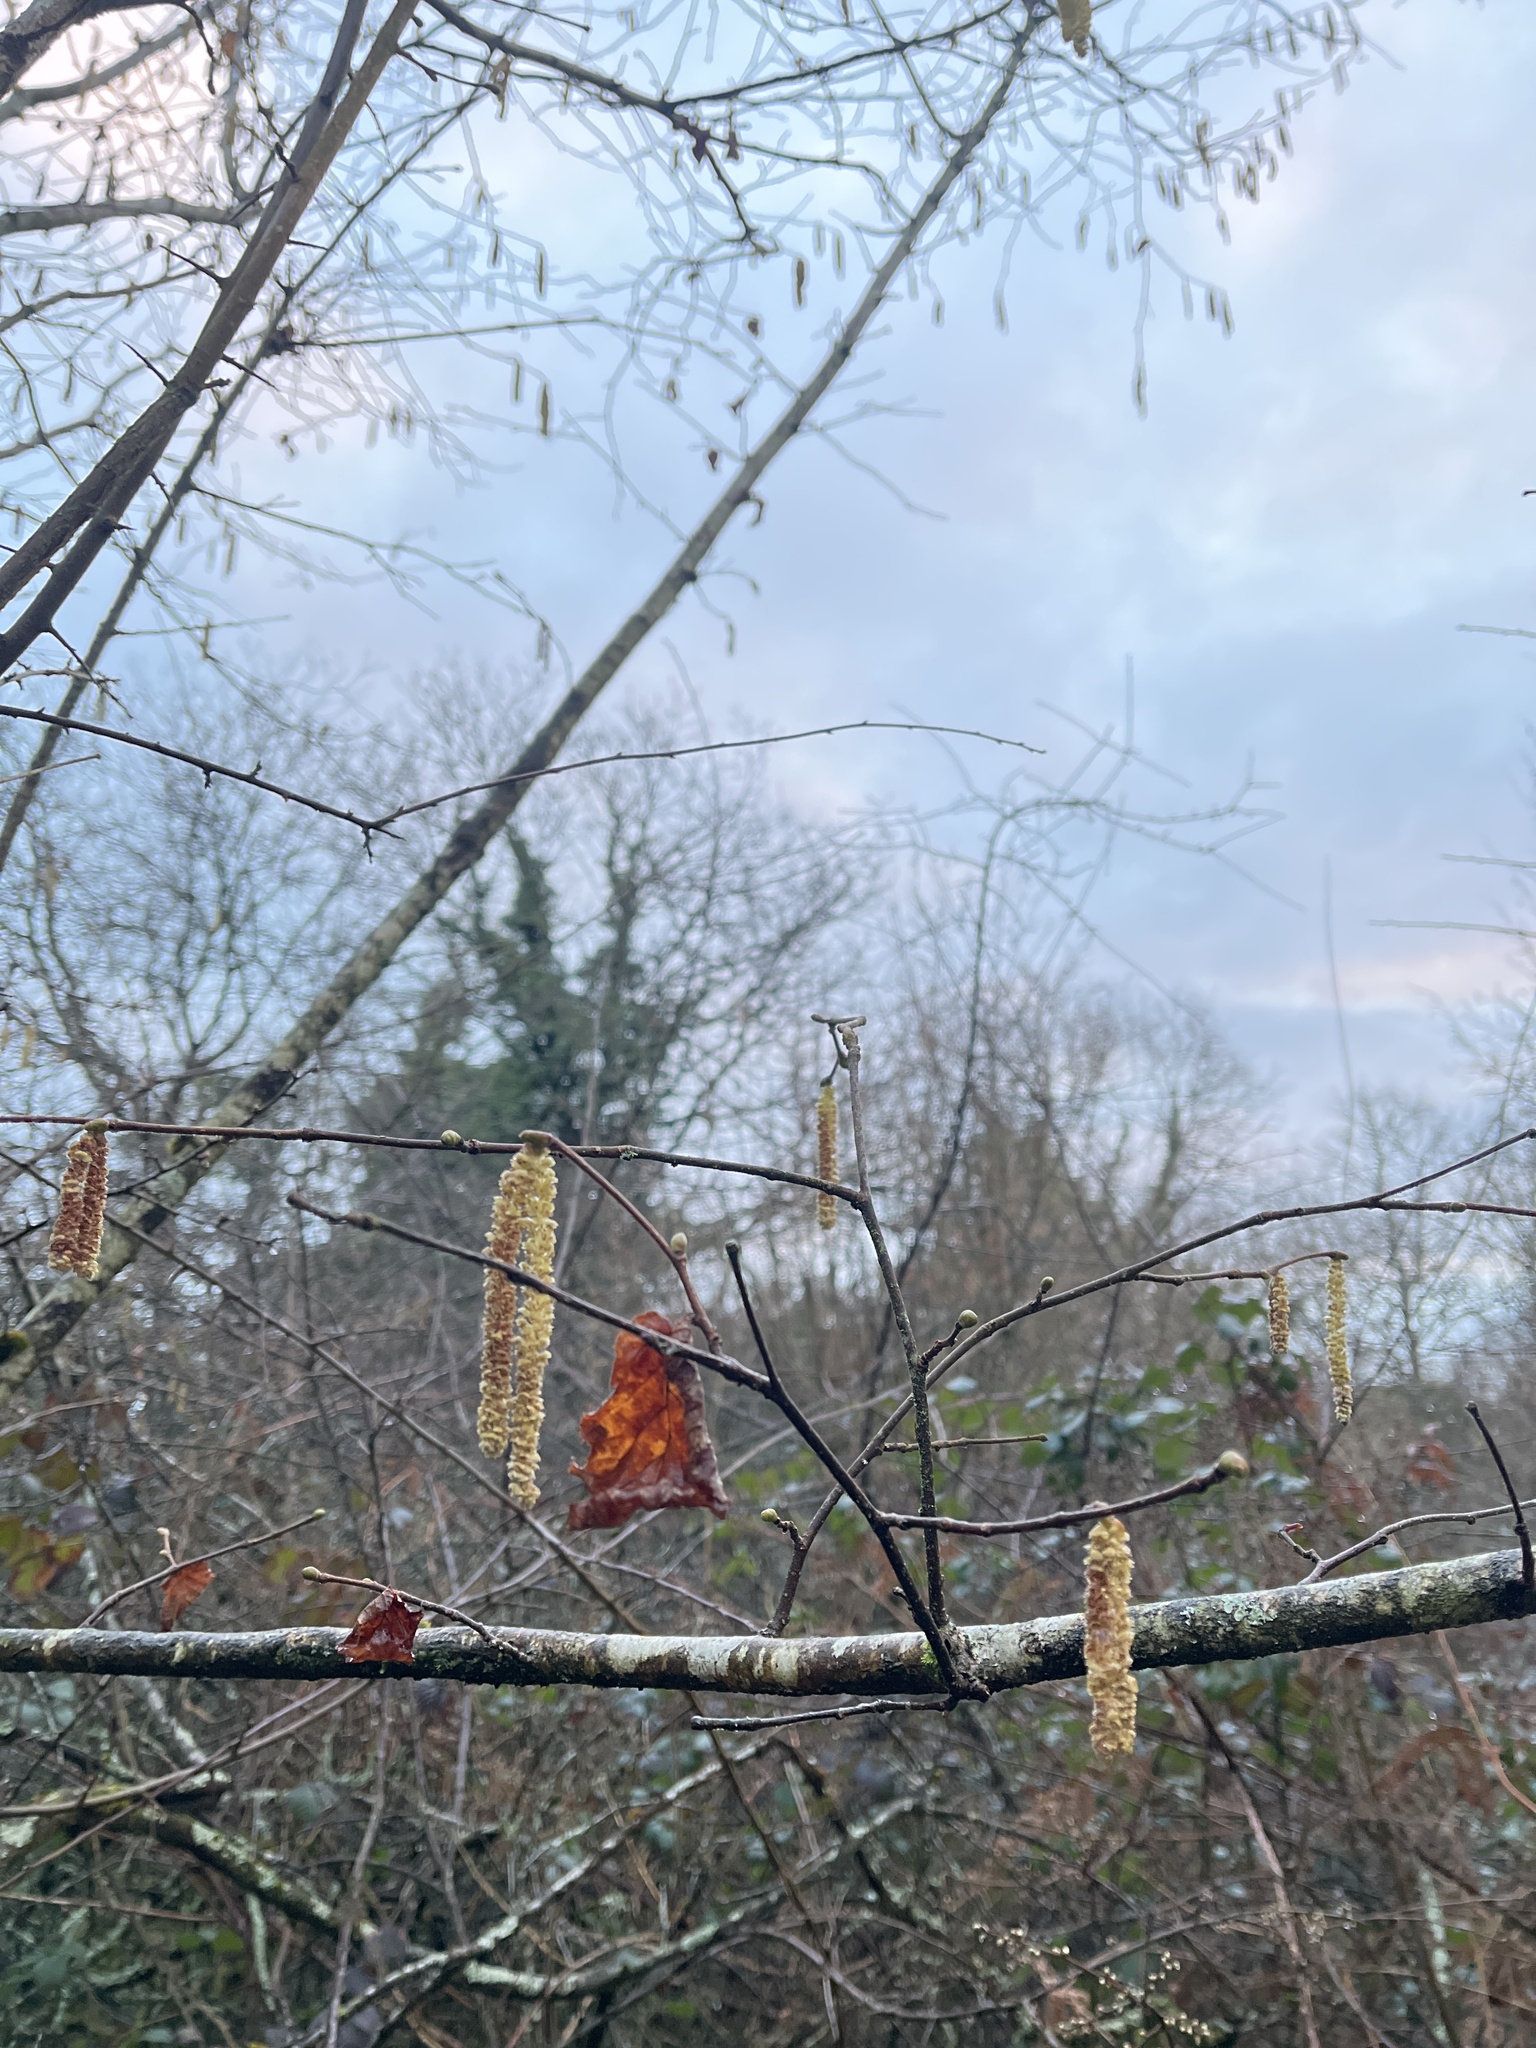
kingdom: Plantae
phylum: Tracheophyta
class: Magnoliopsida
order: Fagales
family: Betulaceae
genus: Corylus
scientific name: Corylus avellana
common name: European hazel
